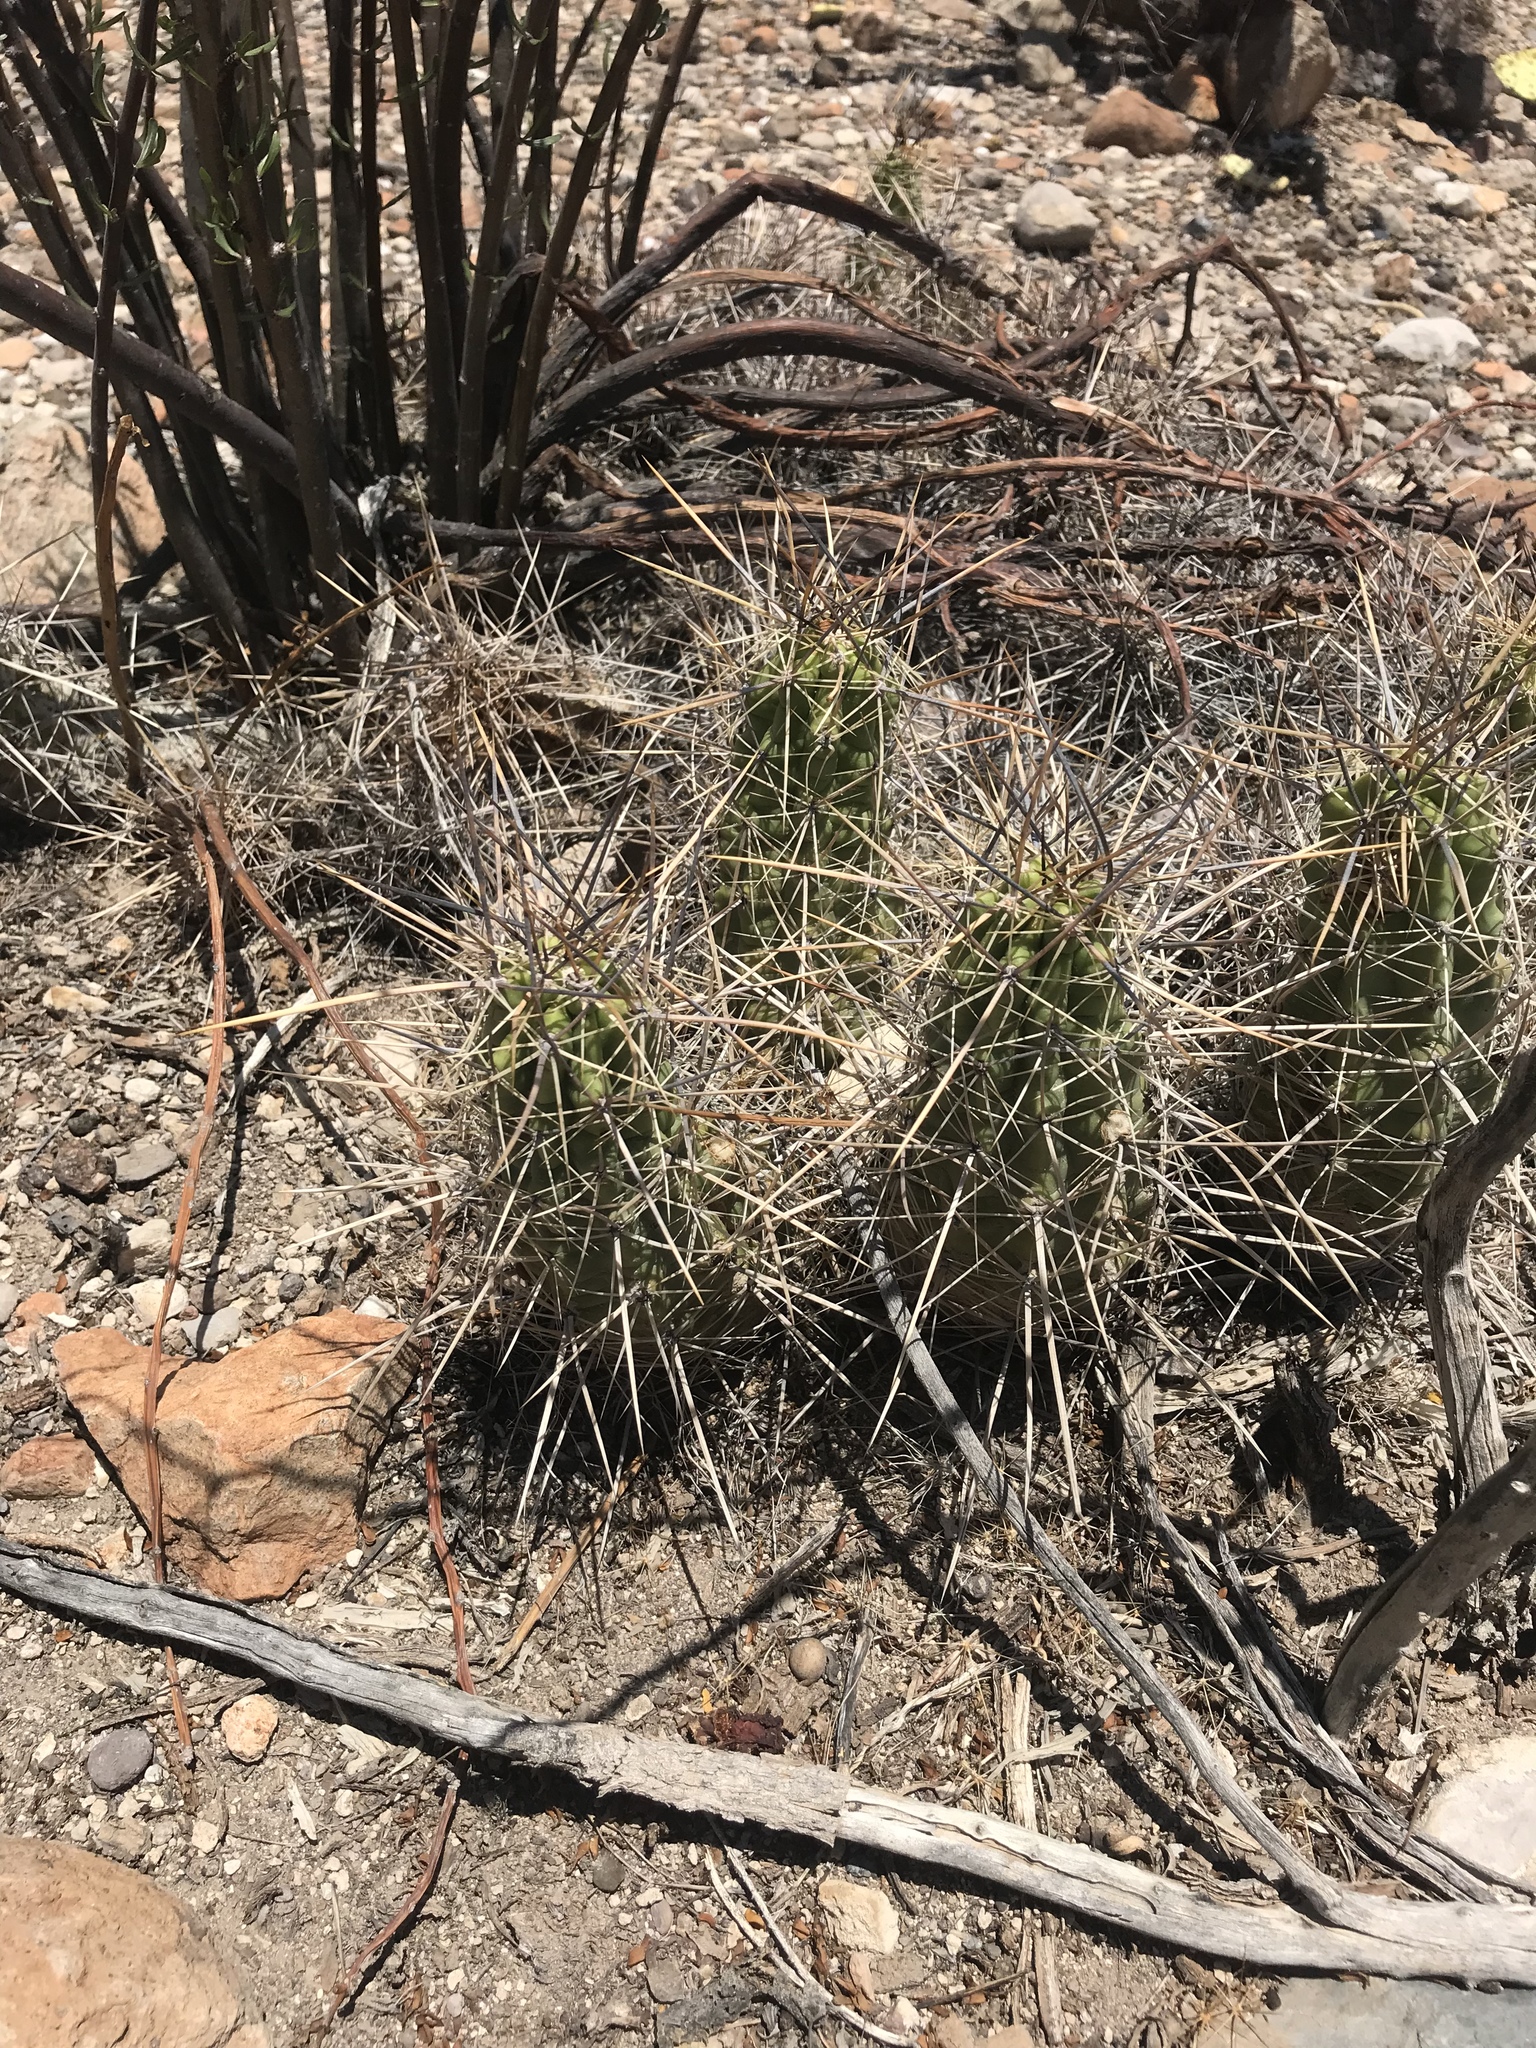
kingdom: Plantae
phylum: Tracheophyta
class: Magnoliopsida
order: Caryophyllales
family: Cactaceae
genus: Echinocereus
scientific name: Echinocereus enneacanthus
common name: Pitaya
